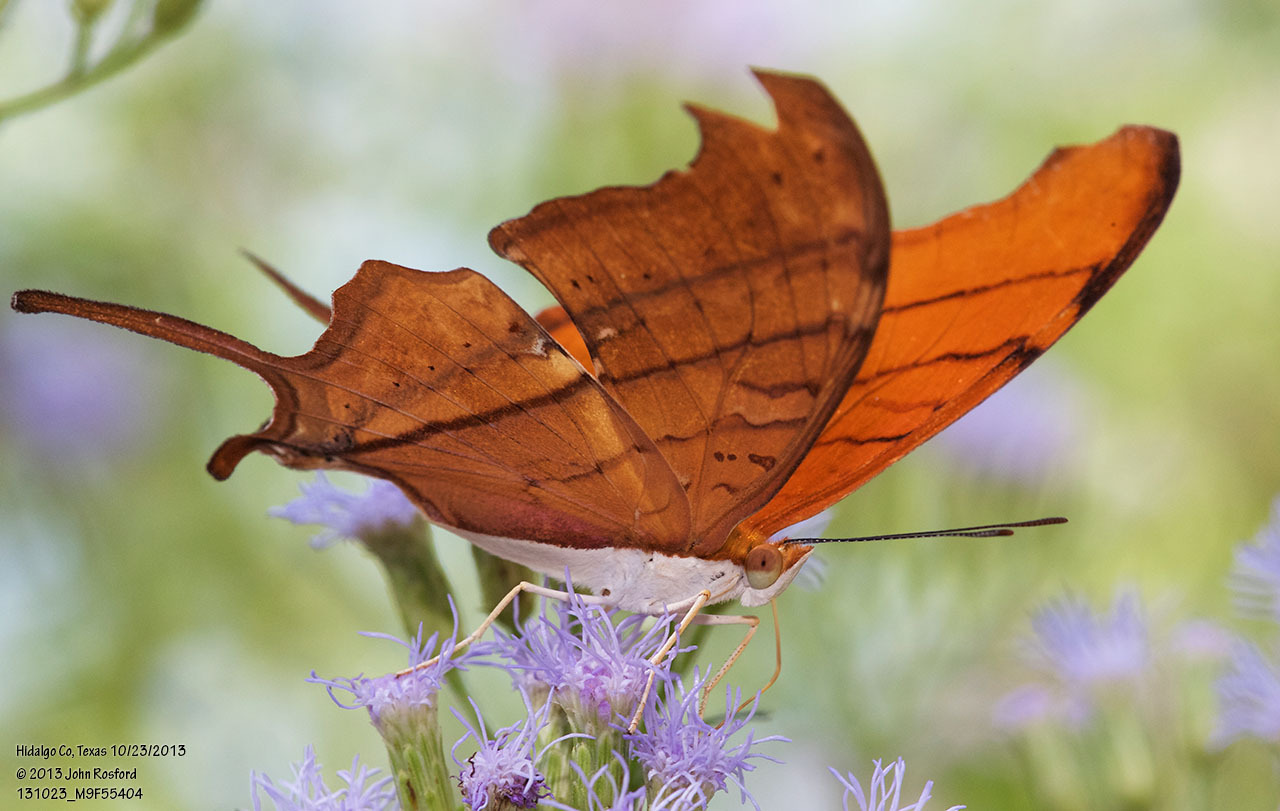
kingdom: Animalia
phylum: Arthropoda
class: Insecta
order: Lepidoptera
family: Nymphalidae
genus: Marpesia
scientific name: Marpesia petreus
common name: Red dagger wing
